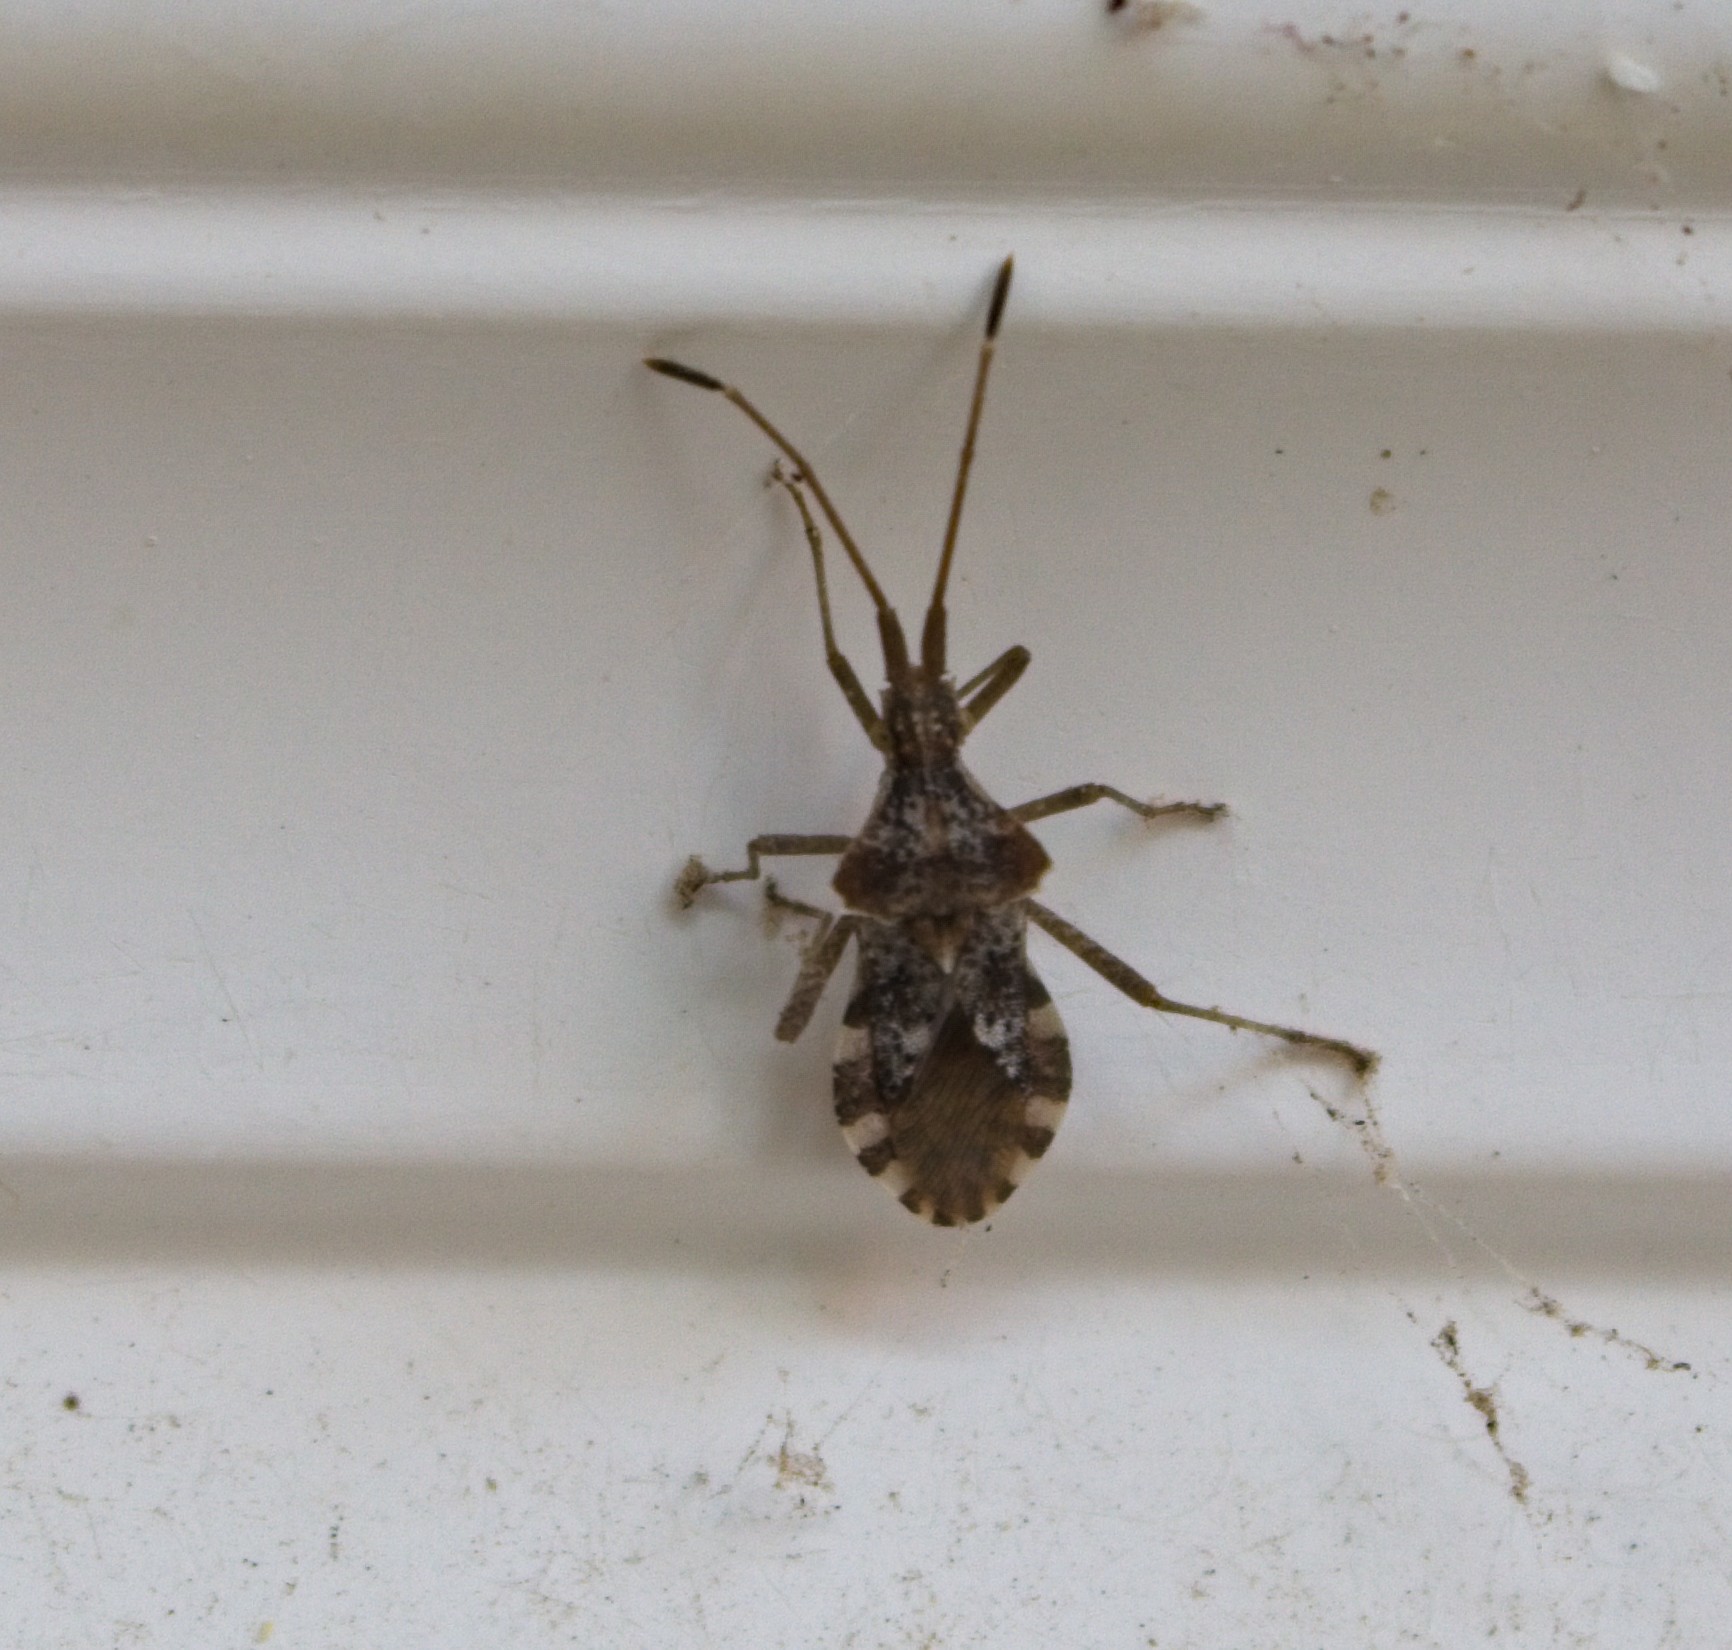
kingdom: Animalia
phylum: Arthropoda
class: Insecta
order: Hemiptera
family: Coreidae
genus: Centrocoris
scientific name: Centrocoris volxemi
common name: Leaf-footed bug
